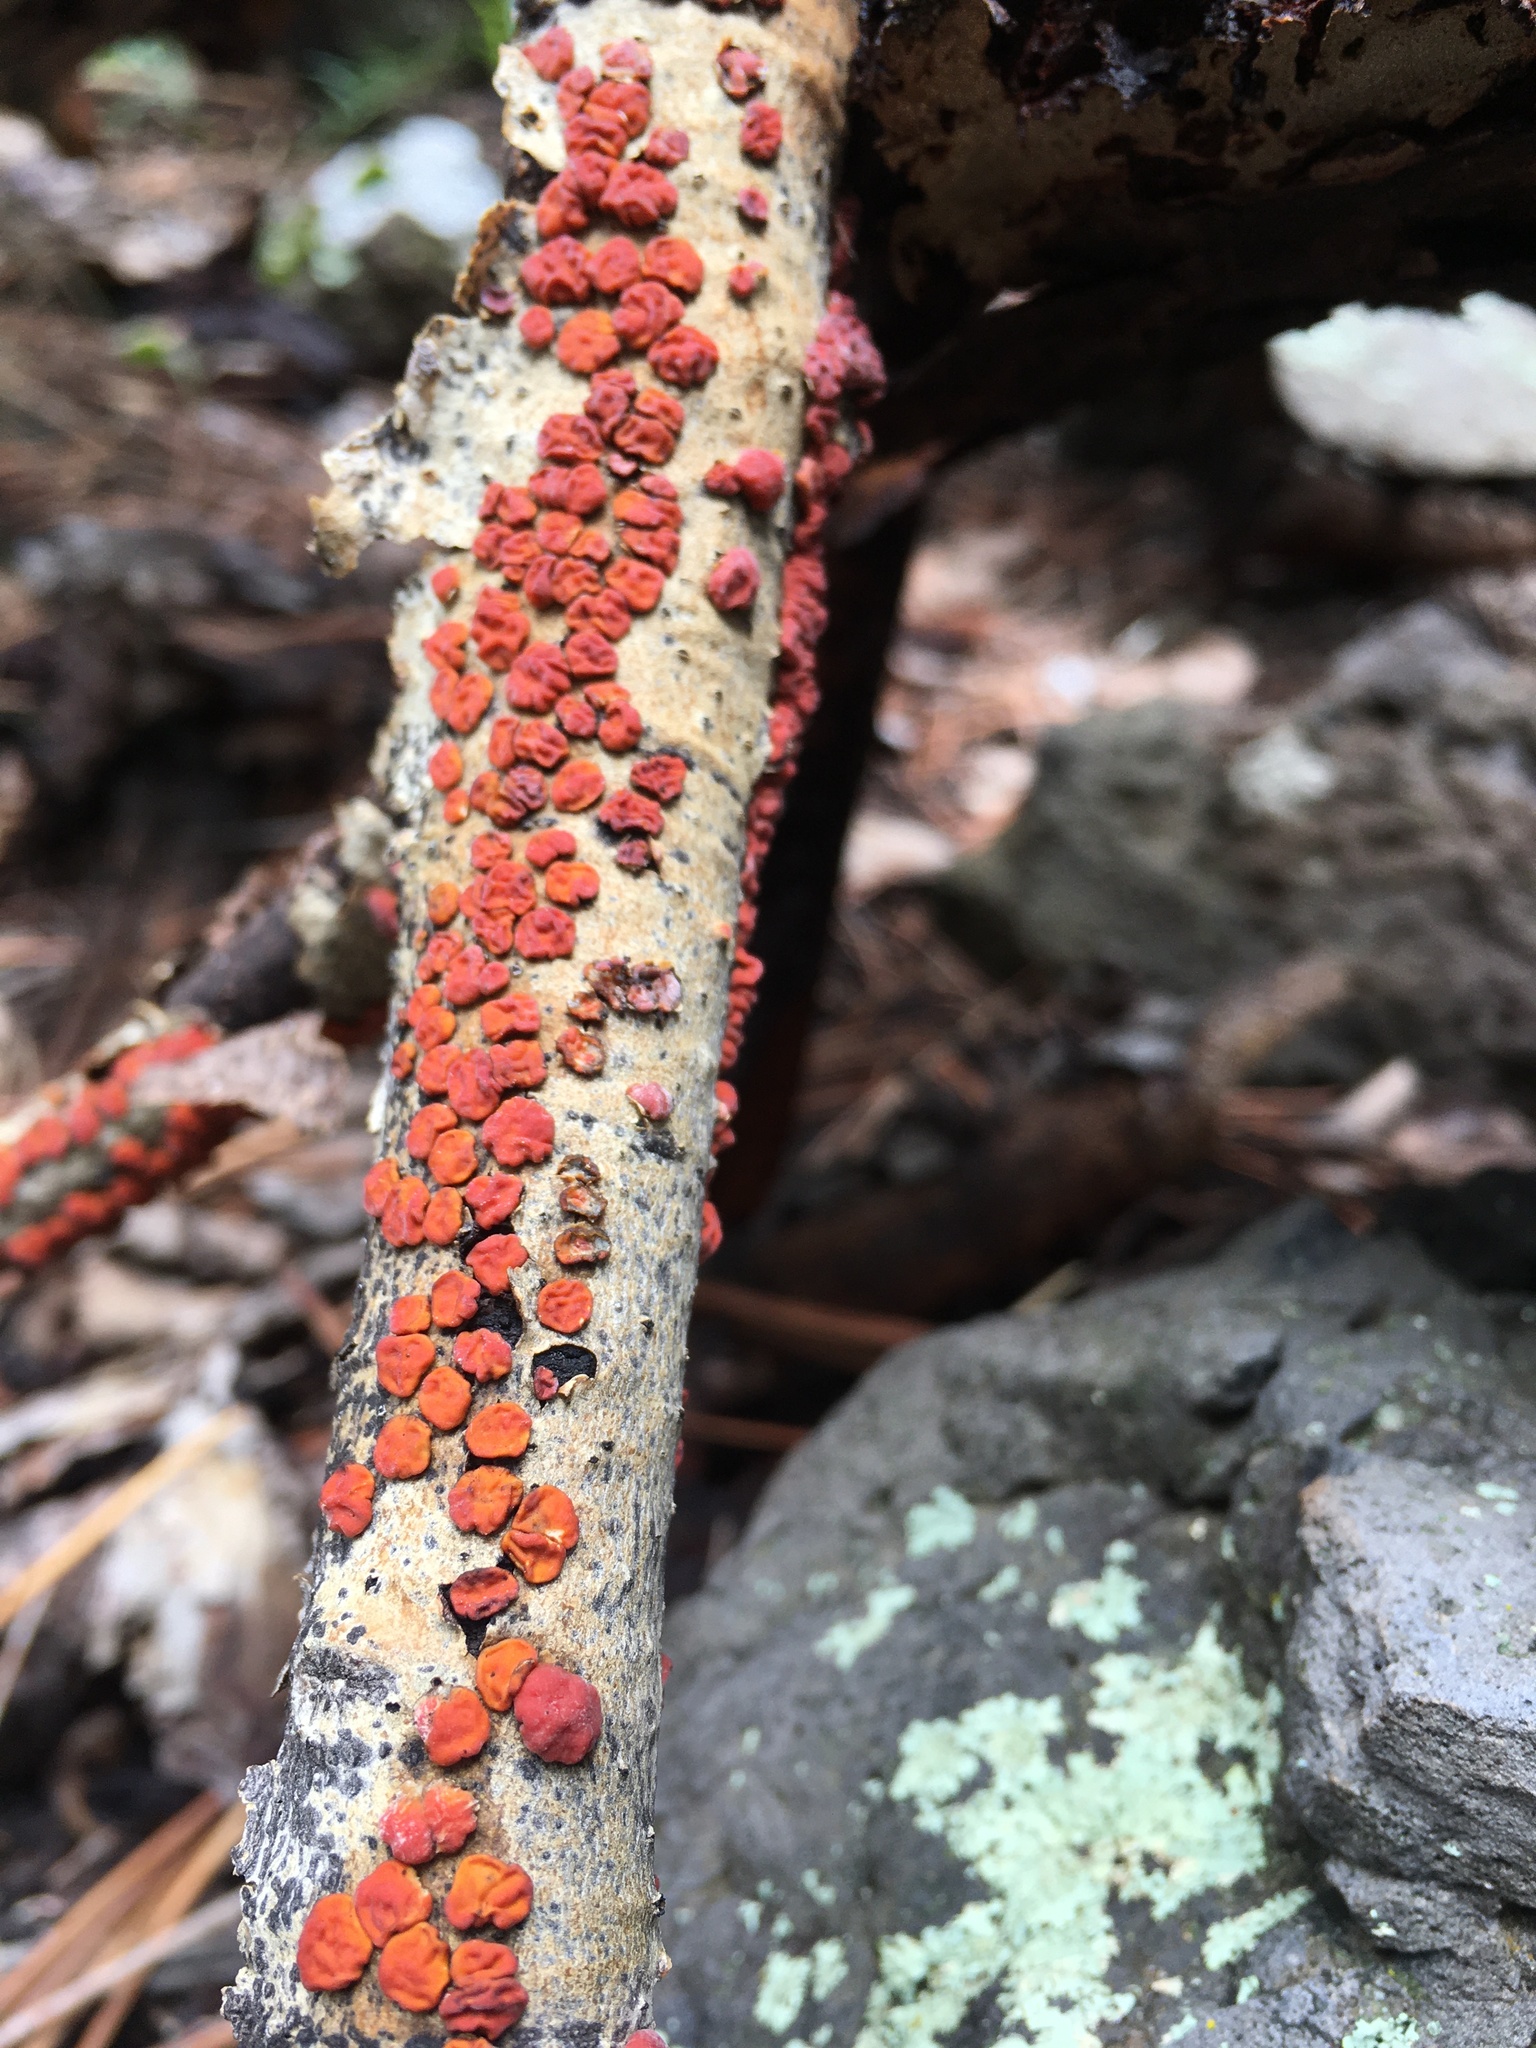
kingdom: Fungi
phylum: Basidiomycota
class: Agaricomycetes
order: Russulales
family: Peniophoraceae
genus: Peniophora
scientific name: Peniophora rufa
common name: Red tree brain fungus
